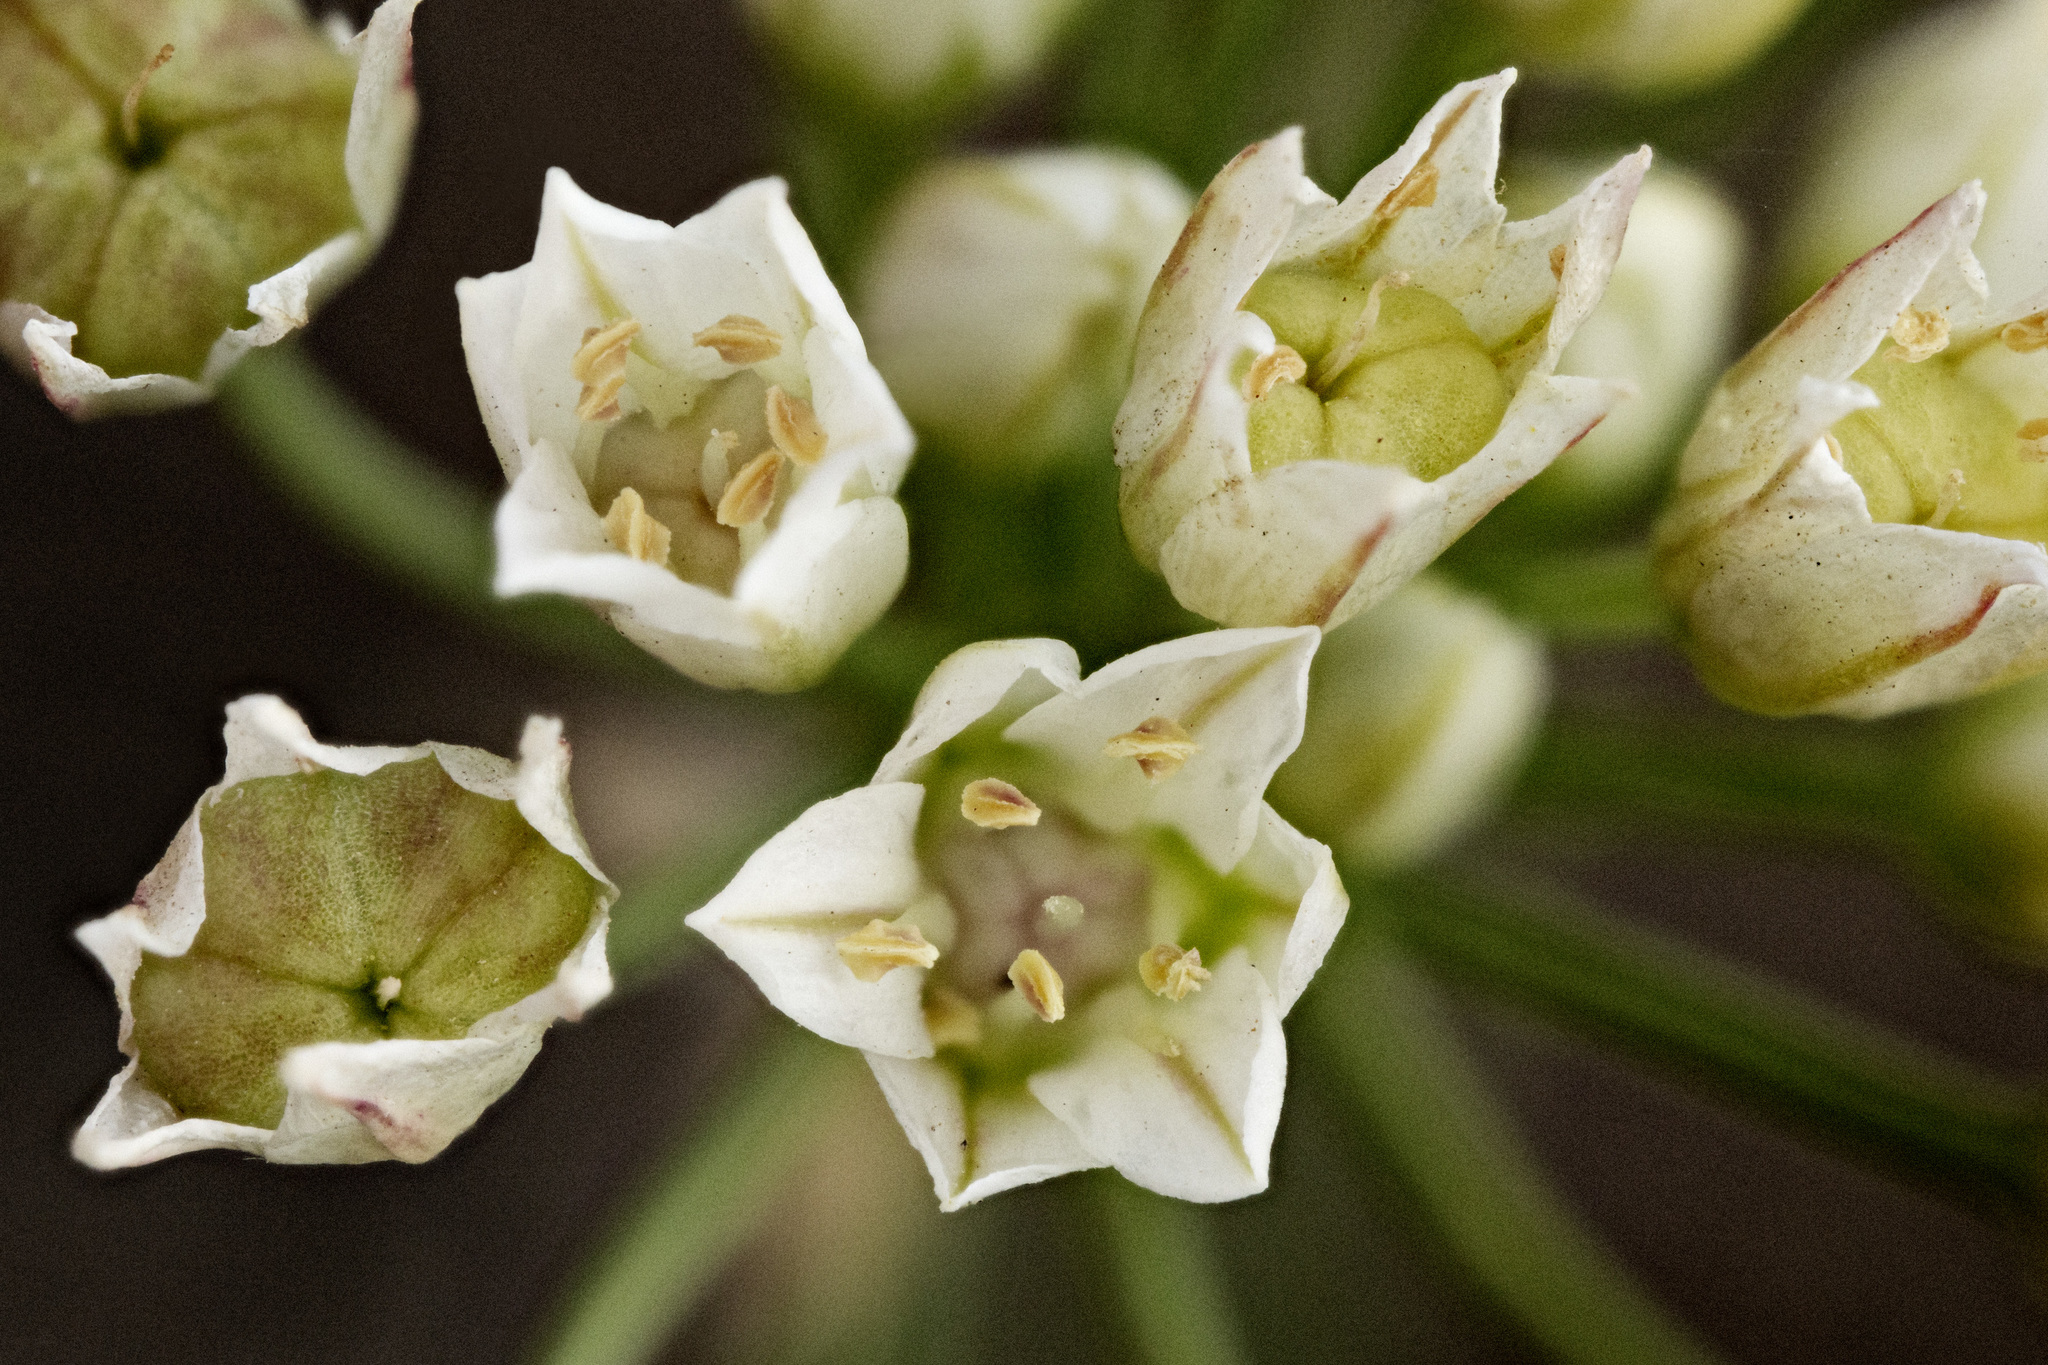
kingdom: Plantae
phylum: Tracheophyta
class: Liliopsida
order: Asparagales
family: Amaryllidaceae
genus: Allium
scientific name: Allium drummondii
